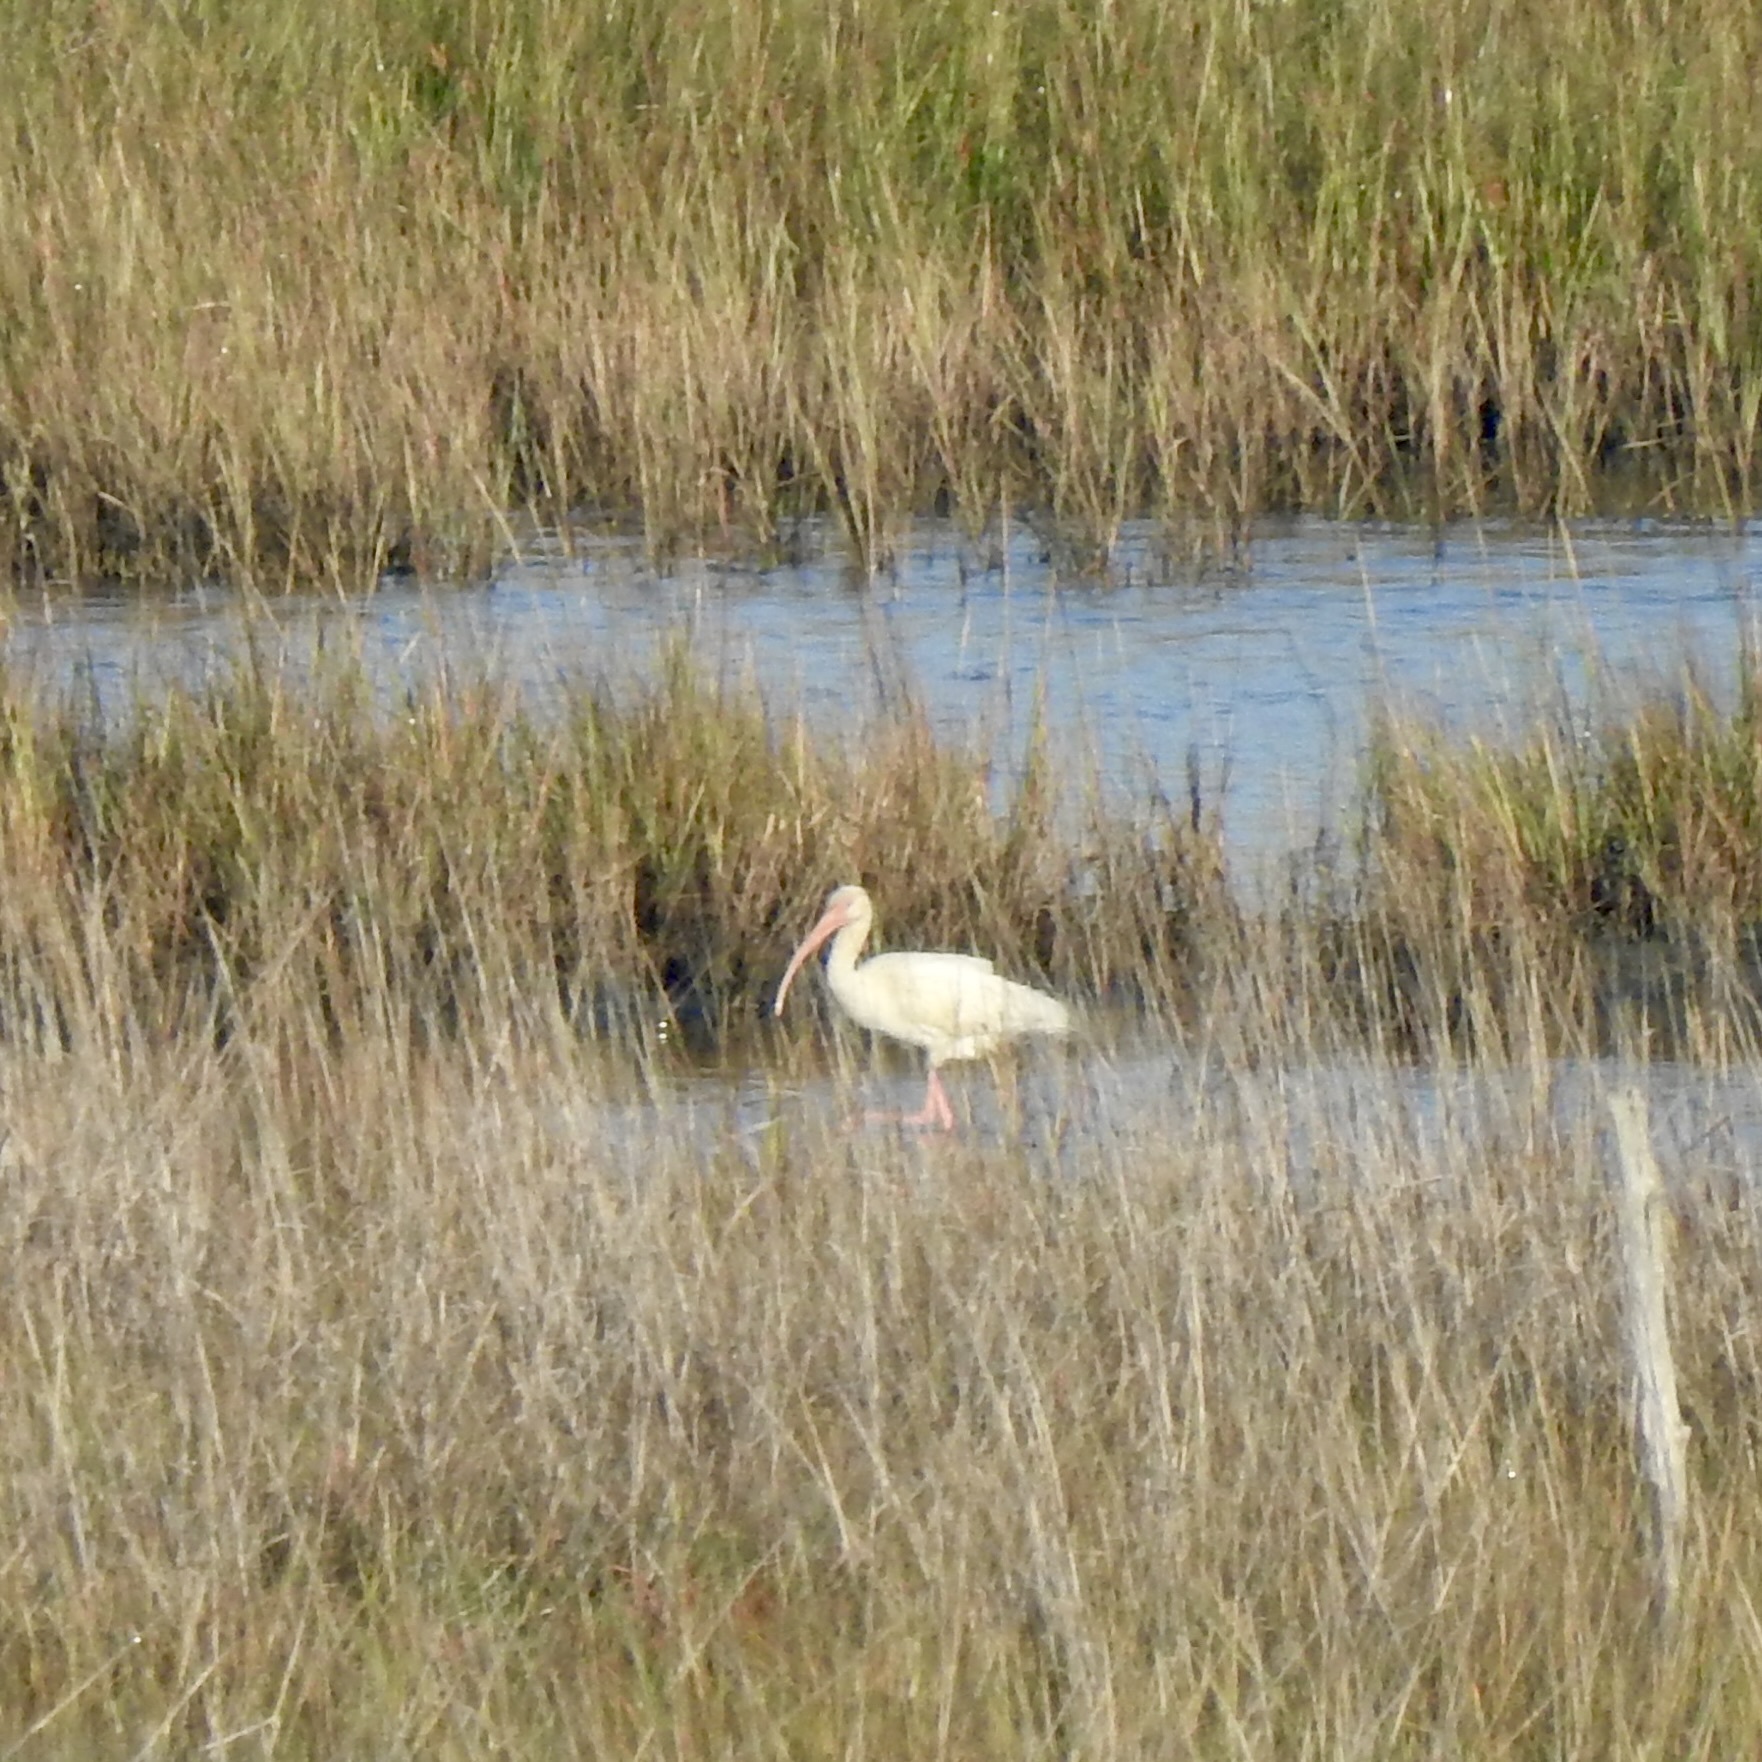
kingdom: Animalia
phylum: Chordata
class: Aves
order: Pelecaniformes
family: Threskiornithidae
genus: Eudocimus
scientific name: Eudocimus albus
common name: White ibis
